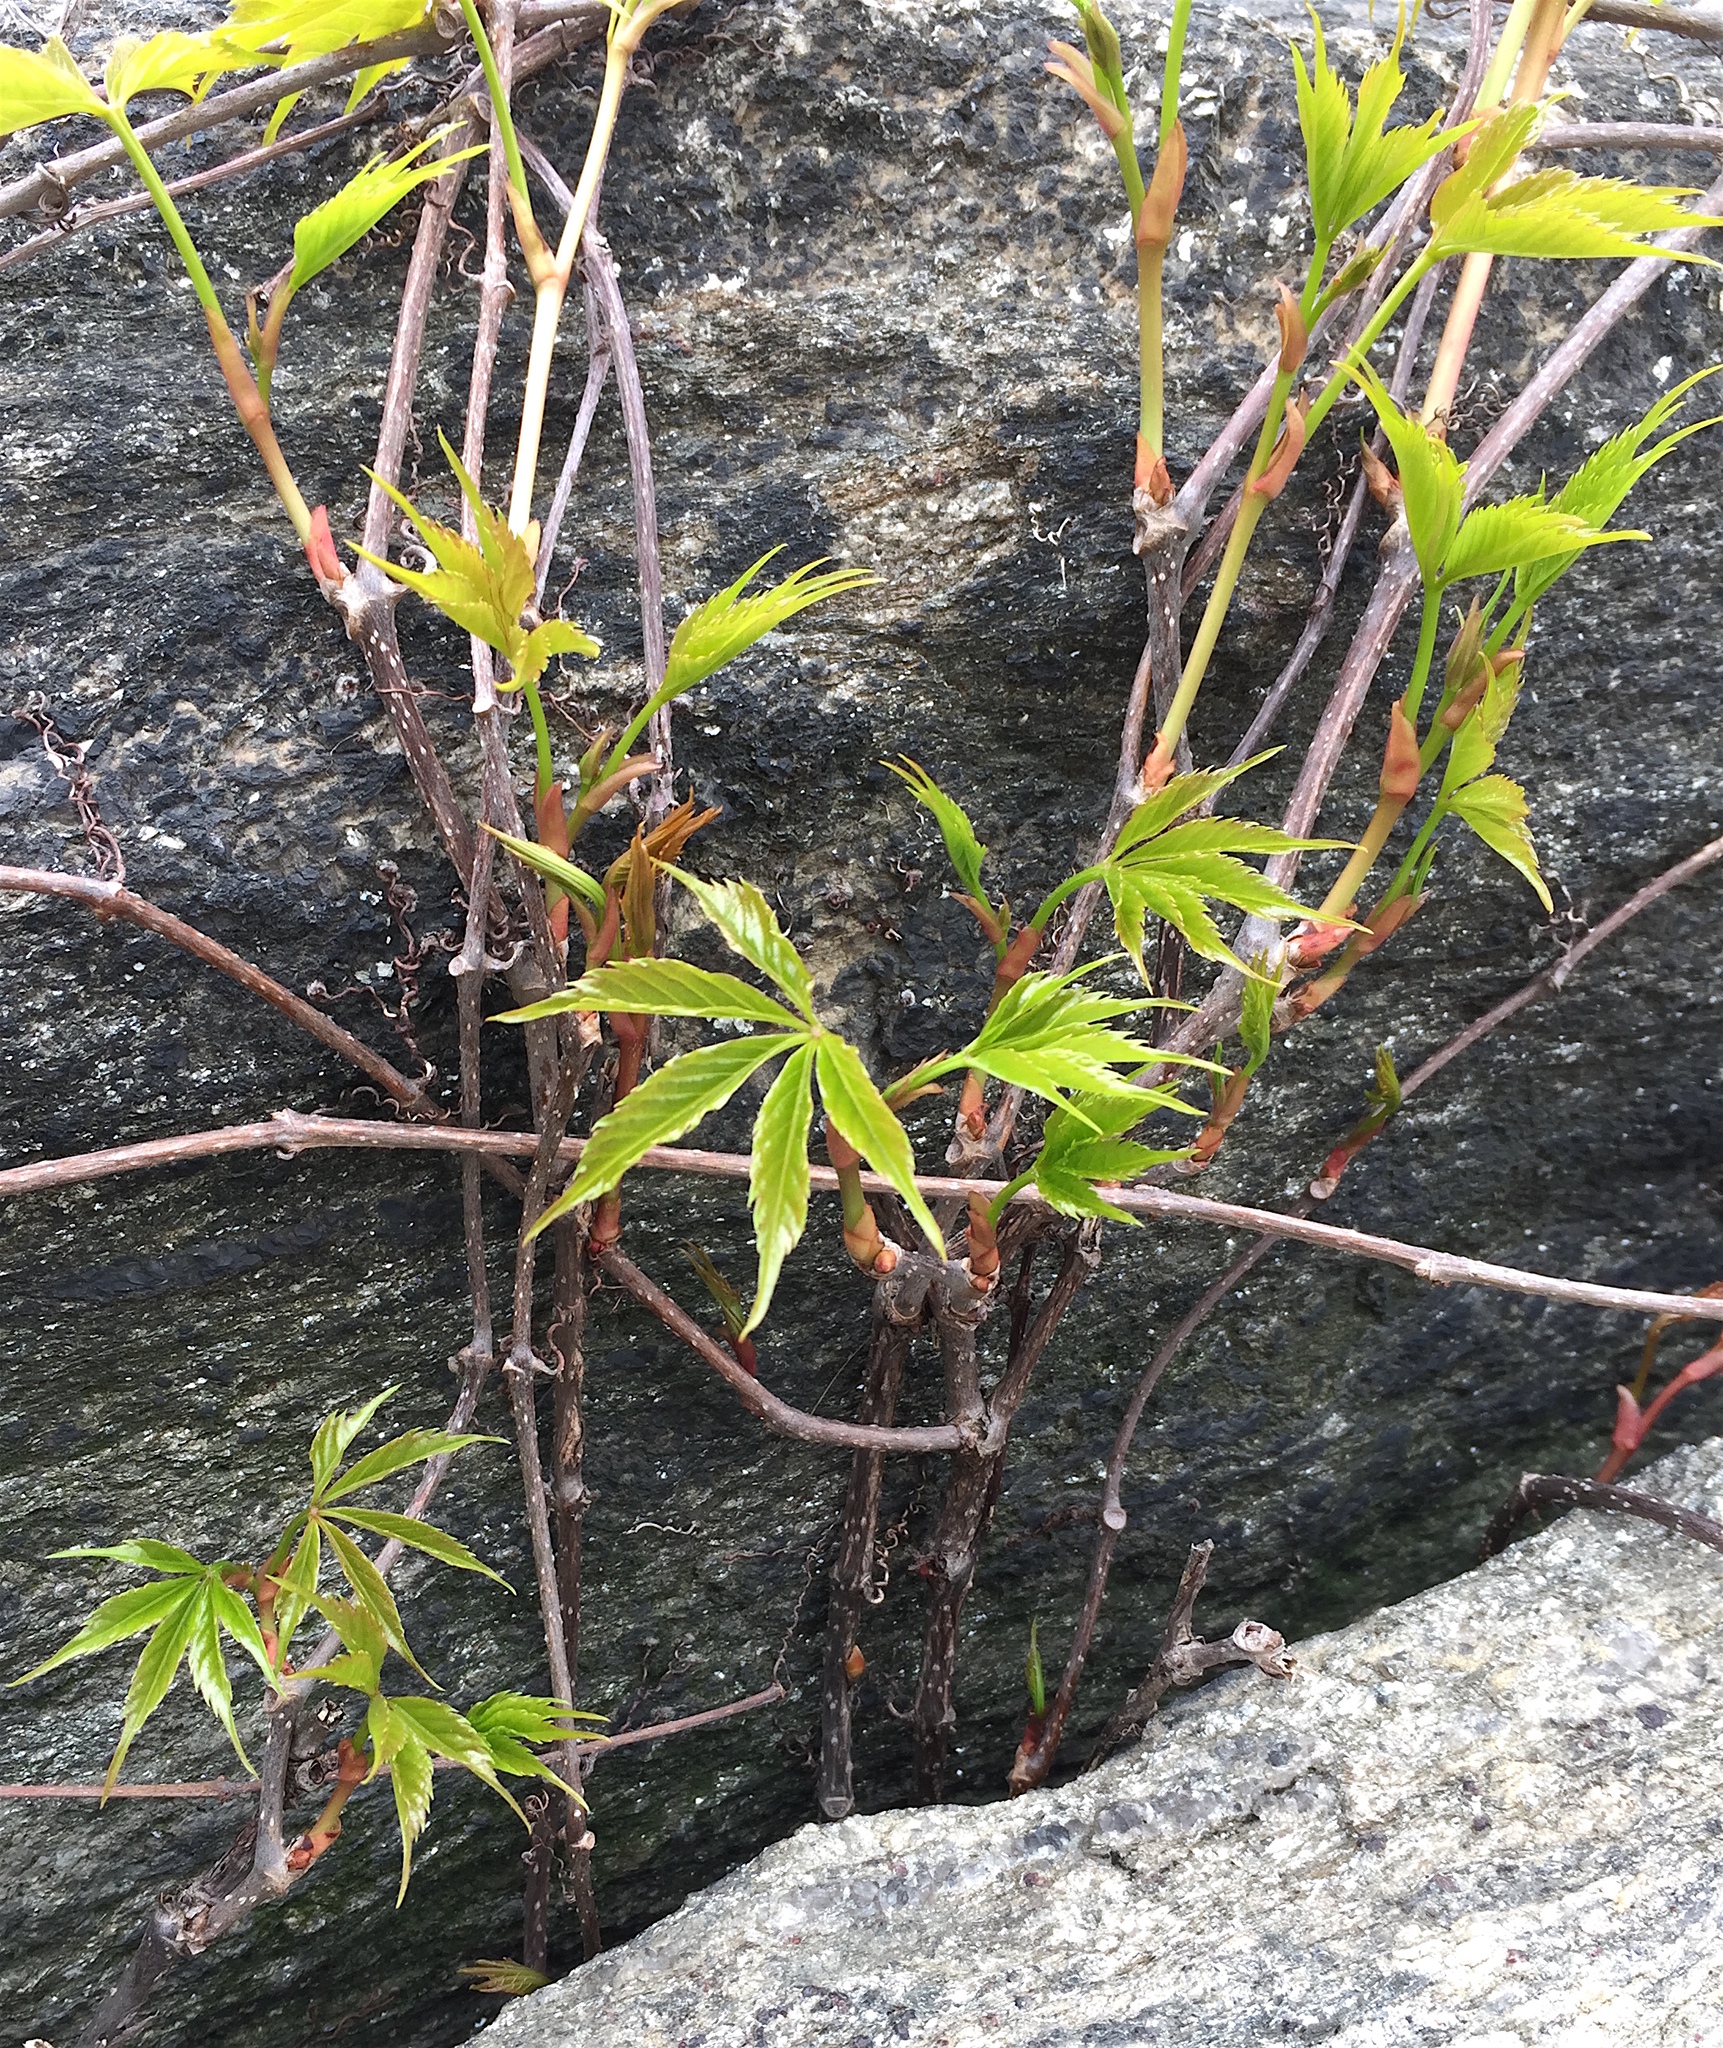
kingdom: Plantae
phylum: Tracheophyta
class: Magnoliopsida
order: Vitales
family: Vitaceae
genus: Parthenocissus
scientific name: Parthenocissus quinquefolia
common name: Virginia-creeper
